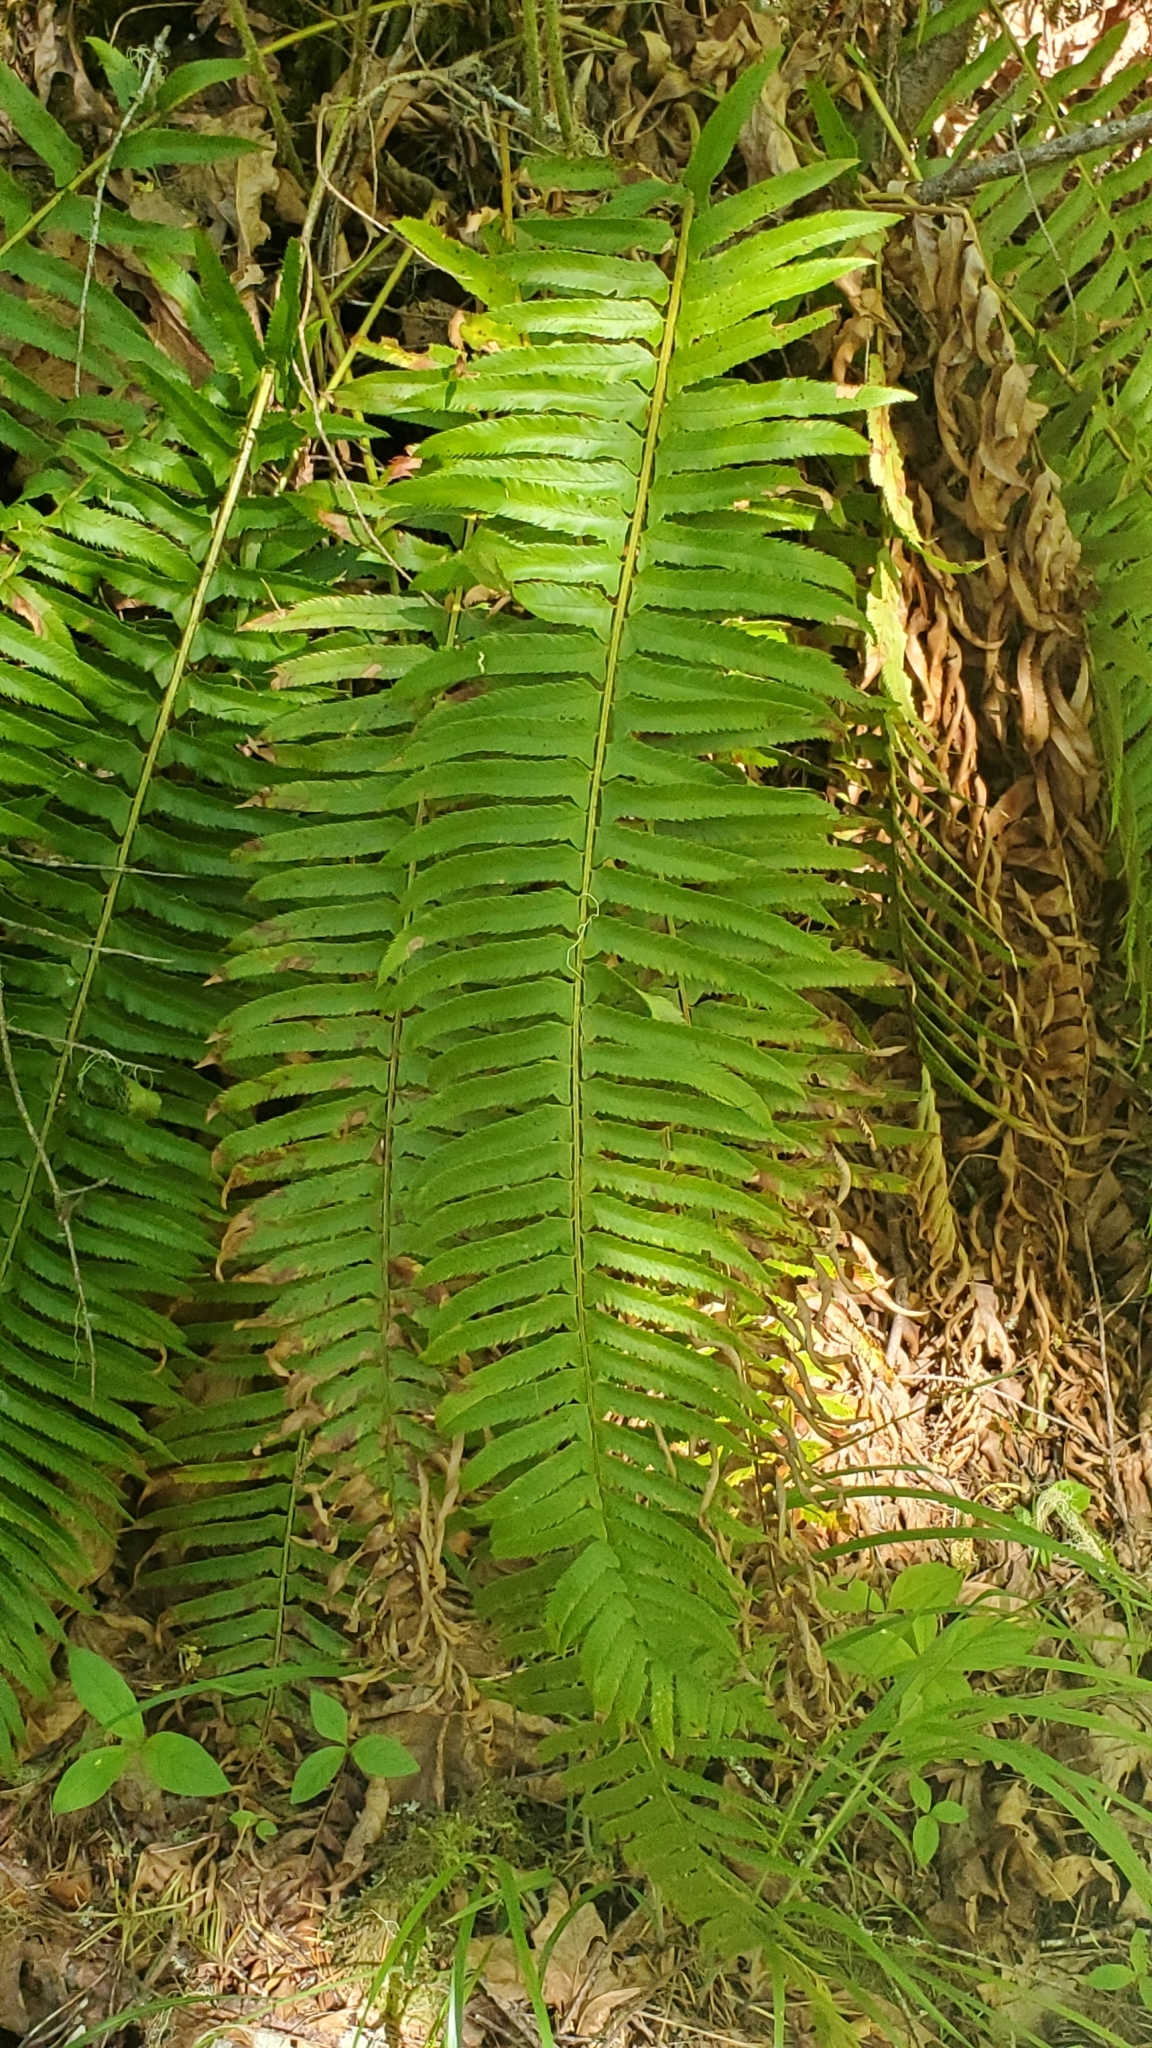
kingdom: Plantae
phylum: Tracheophyta
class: Polypodiopsida
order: Polypodiales
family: Dryopteridaceae
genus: Polystichum
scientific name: Polystichum munitum
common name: Western sword-fern
